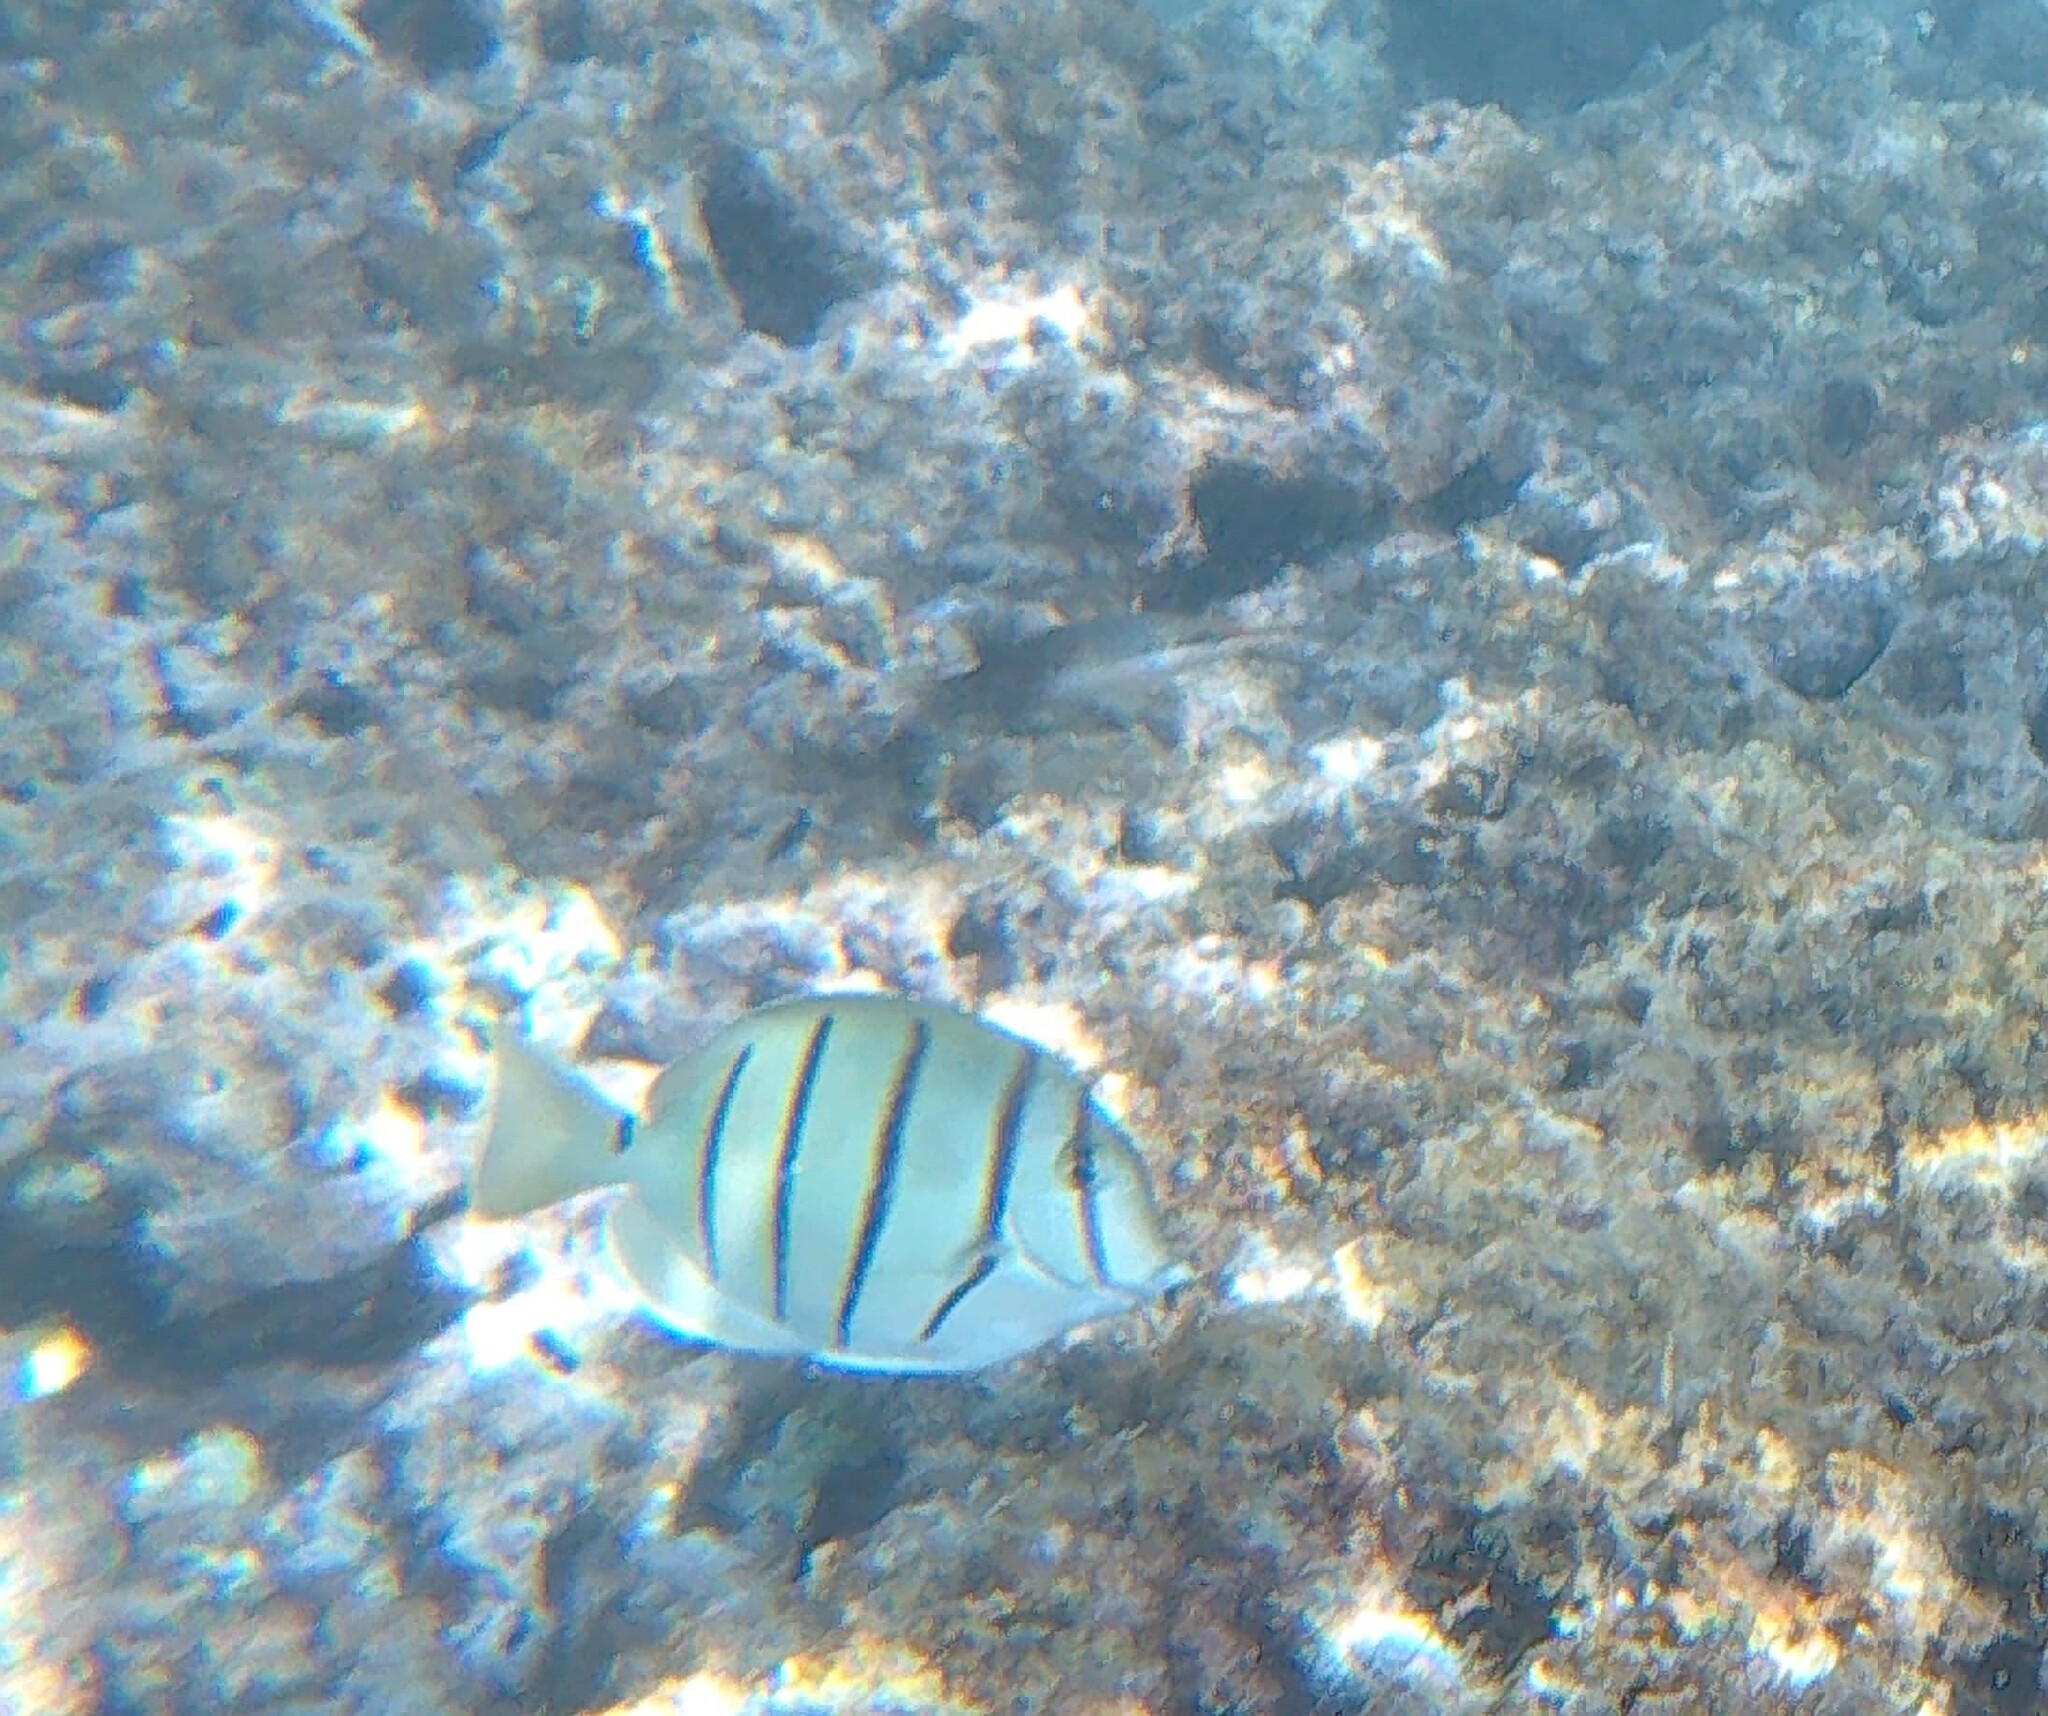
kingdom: Animalia
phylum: Chordata
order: Perciformes
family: Acanthuridae
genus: Acanthurus
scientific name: Acanthurus triostegus
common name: Convict surgeonfish
